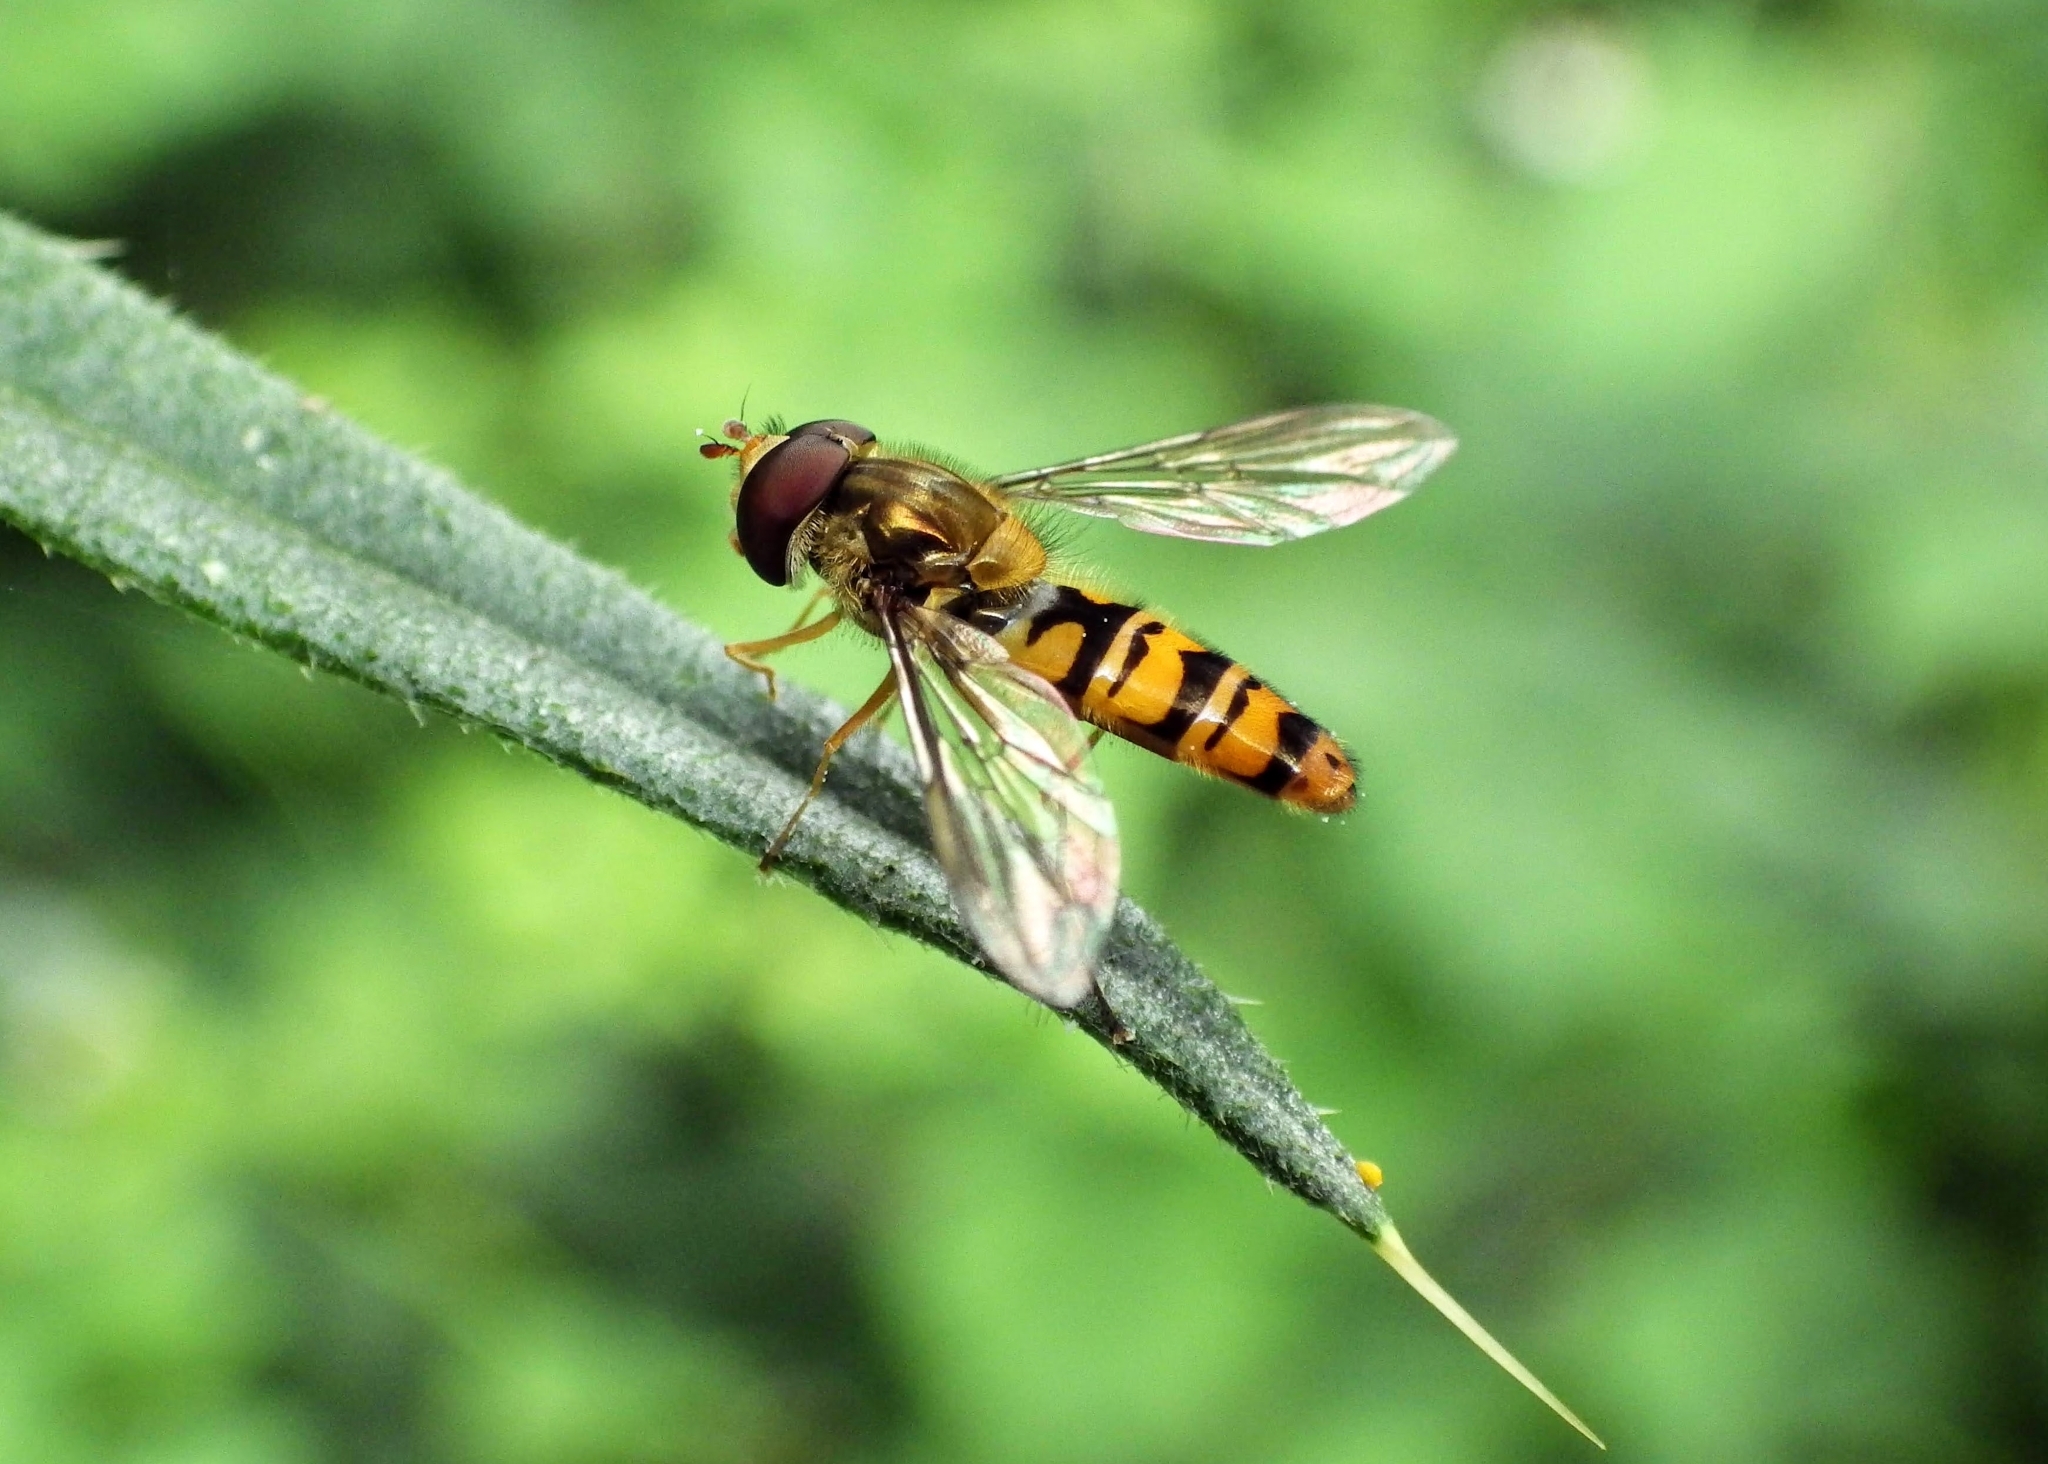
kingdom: Animalia
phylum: Arthropoda
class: Insecta
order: Diptera
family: Syrphidae
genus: Episyrphus
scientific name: Episyrphus balteatus
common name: Marmalade hoverfly
